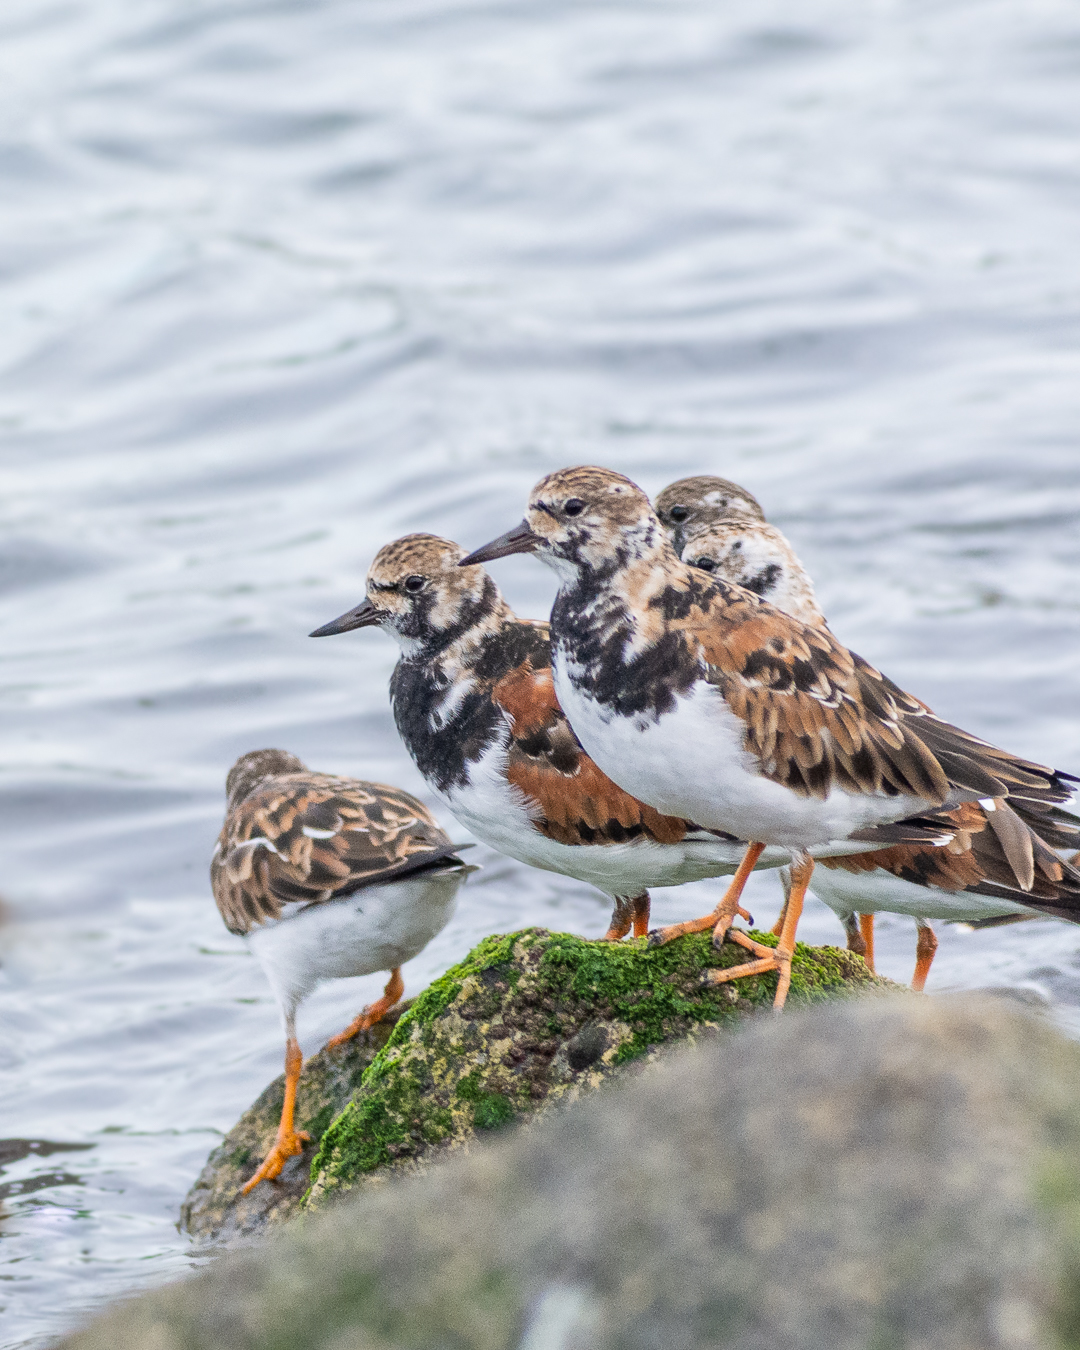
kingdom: Animalia
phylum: Chordata
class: Aves
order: Charadriiformes
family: Scolopacidae
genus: Arenaria
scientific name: Arenaria interpres
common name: Ruddy turnstone
